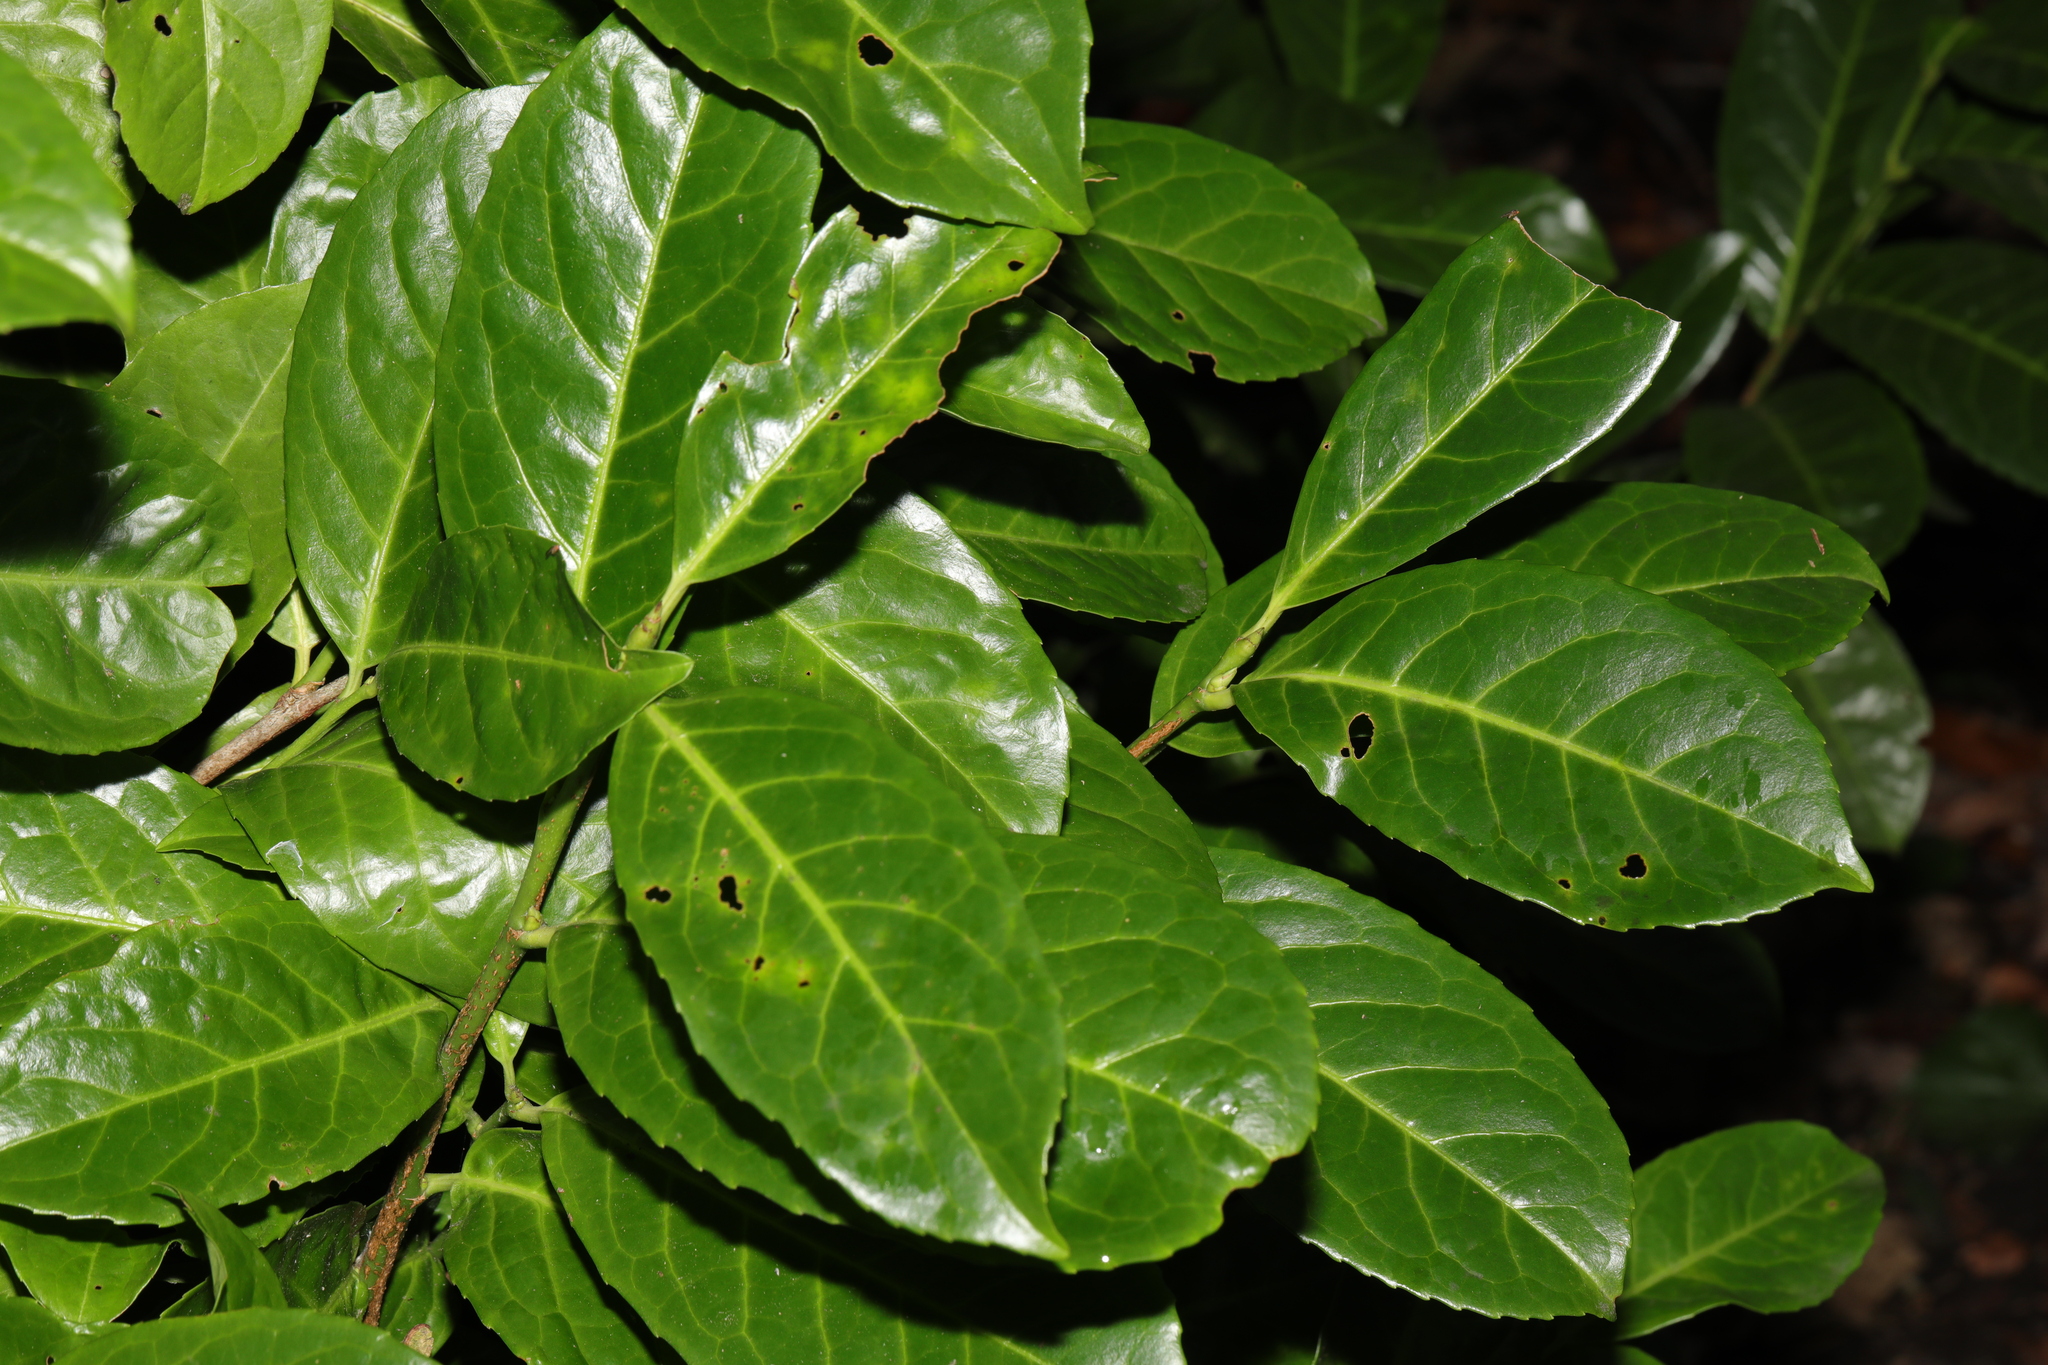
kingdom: Plantae
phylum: Tracheophyta
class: Magnoliopsida
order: Rosales
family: Rosaceae
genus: Prunus
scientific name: Prunus laurocerasus
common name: Cherry laurel
